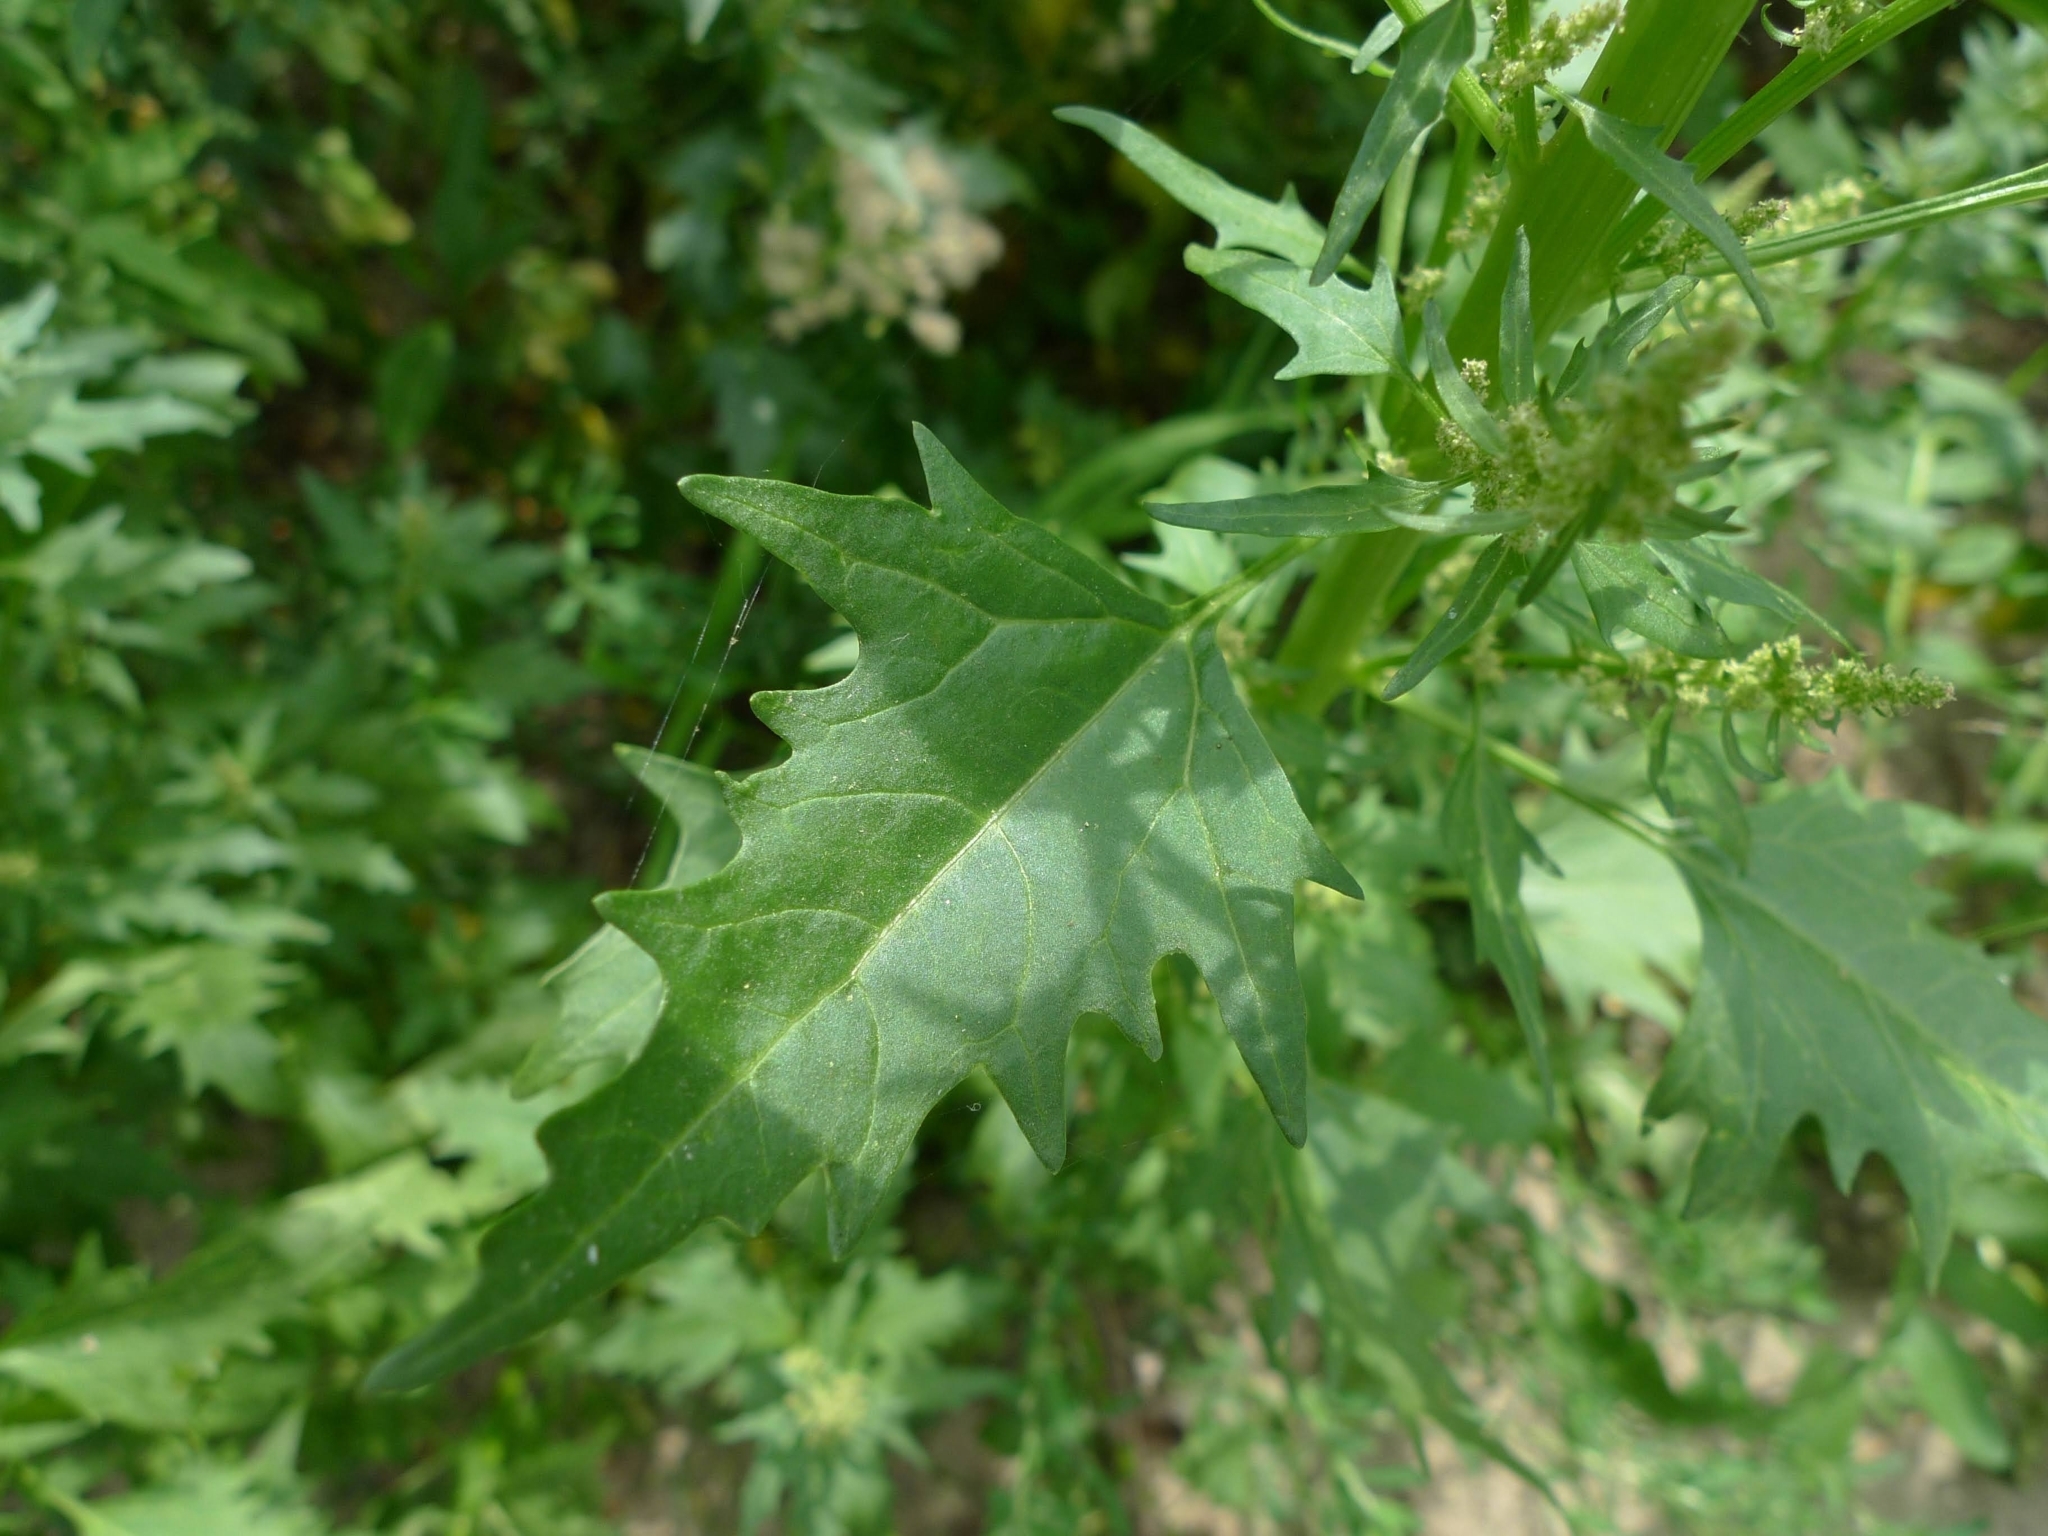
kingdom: Plantae
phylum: Tracheophyta
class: Magnoliopsida
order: Caryophyllales
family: Amaranthaceae
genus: Oxybasis
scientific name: Oxybasis rubra
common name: Red goosefoot
